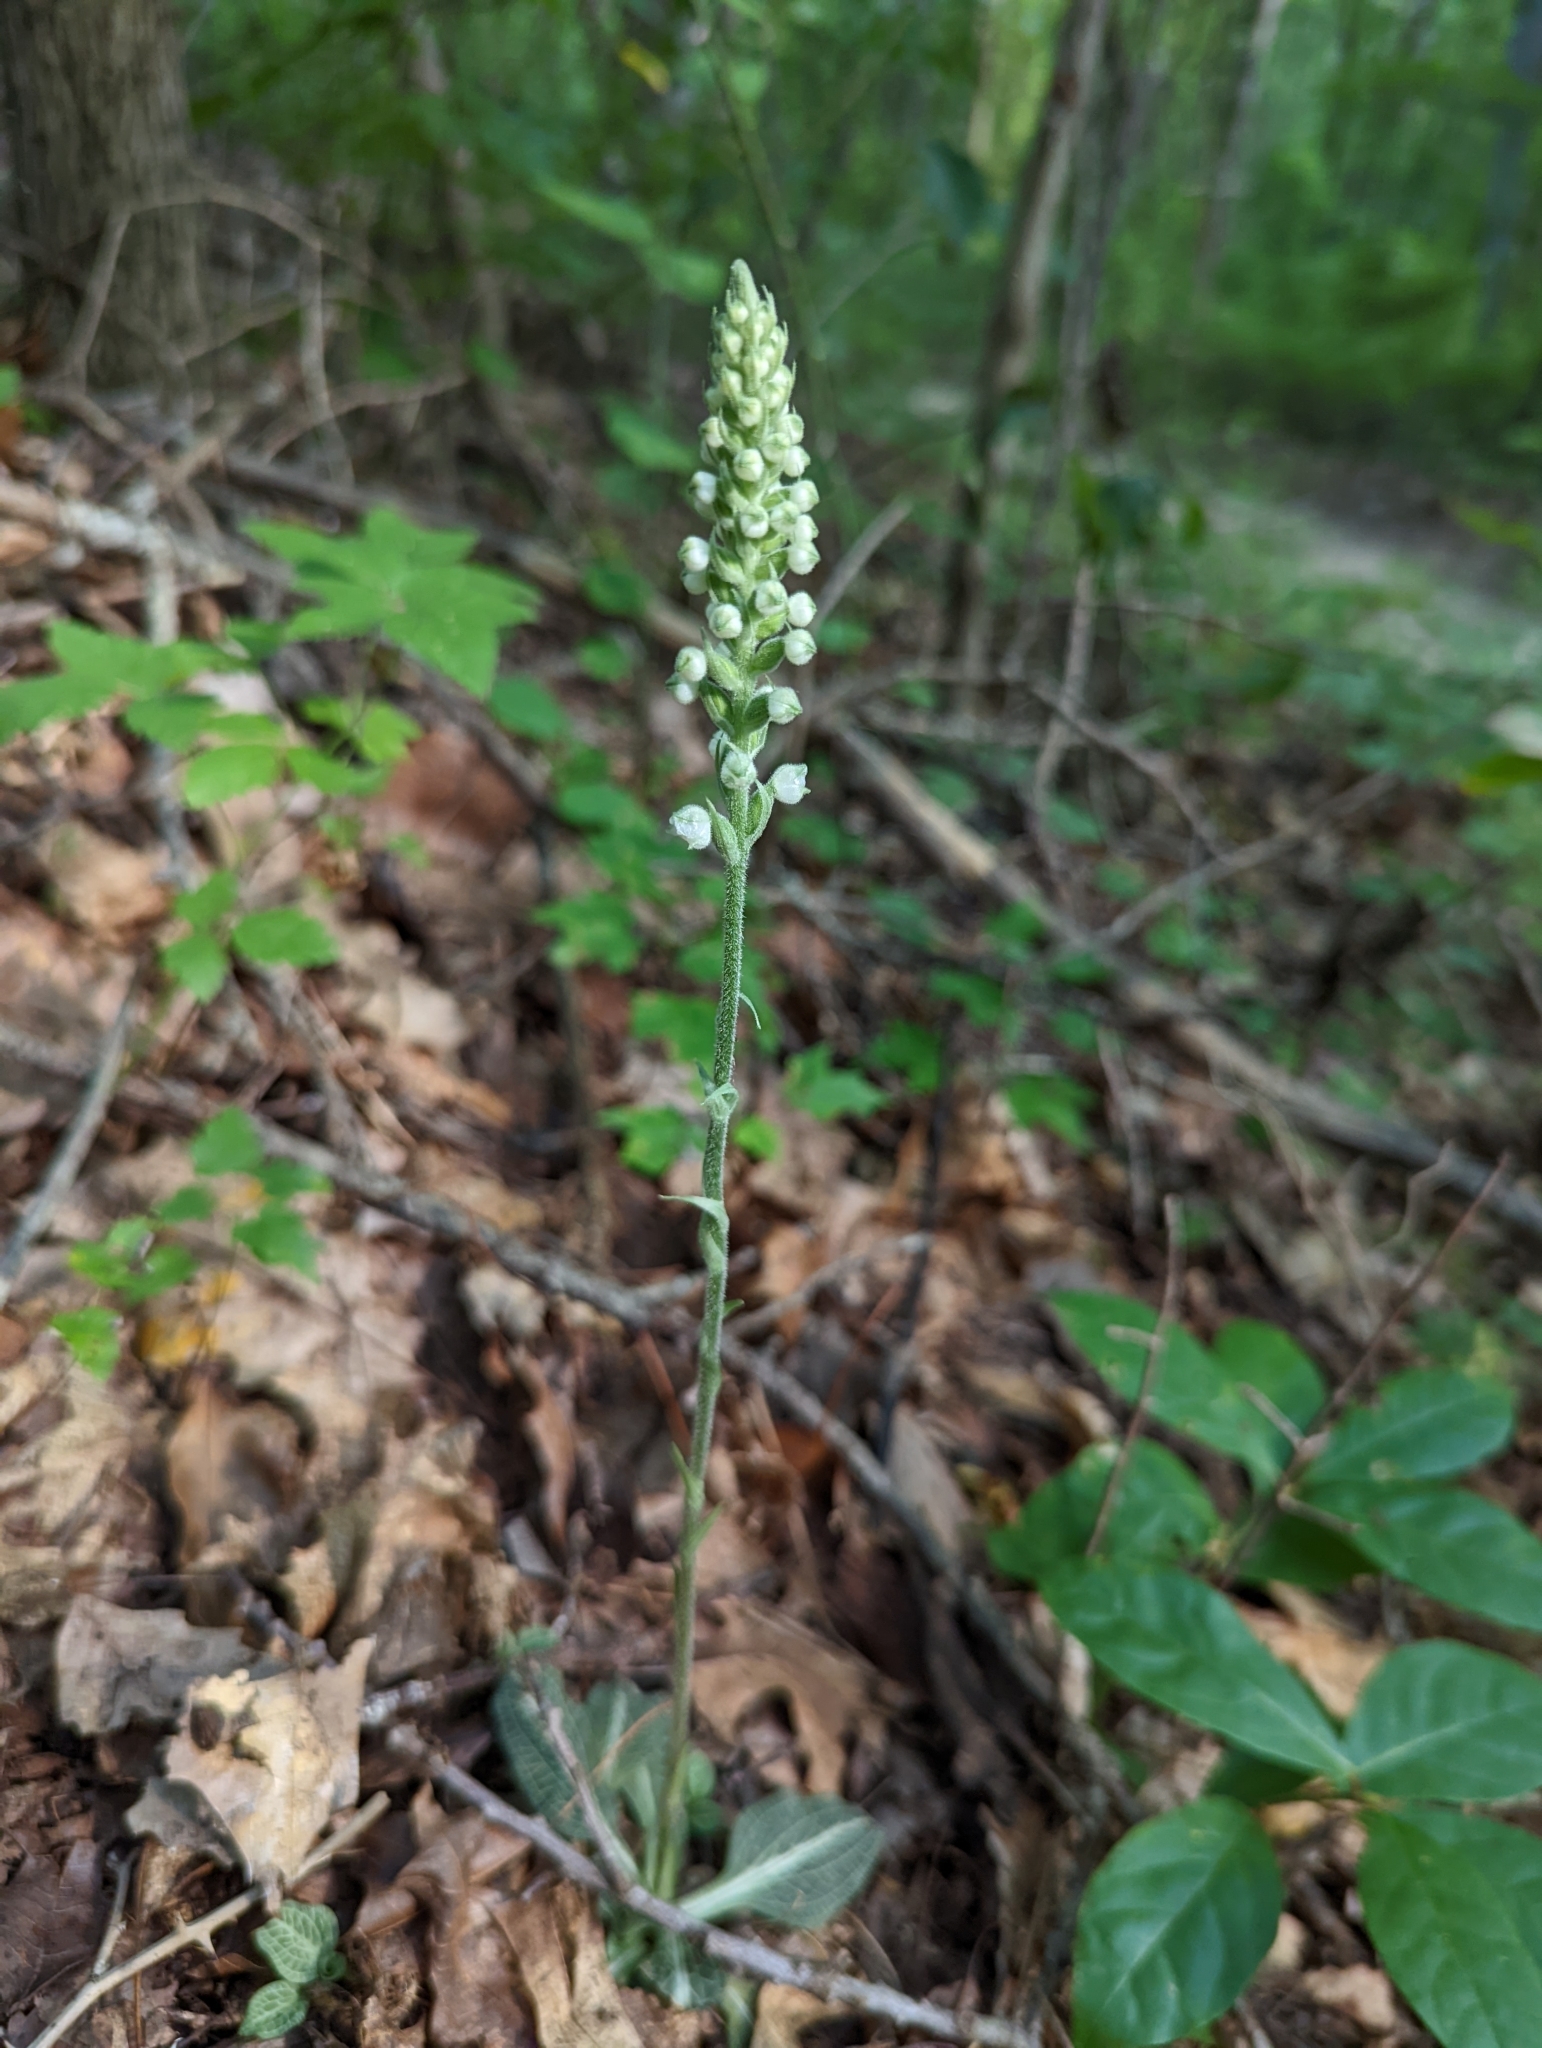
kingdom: Plantae
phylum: Tracheophyta
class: Liliopsida
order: Asparagales
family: Orchidaceae
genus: Goodyera
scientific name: Goodyera pubescens
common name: Downy rattlesnake-plantain
